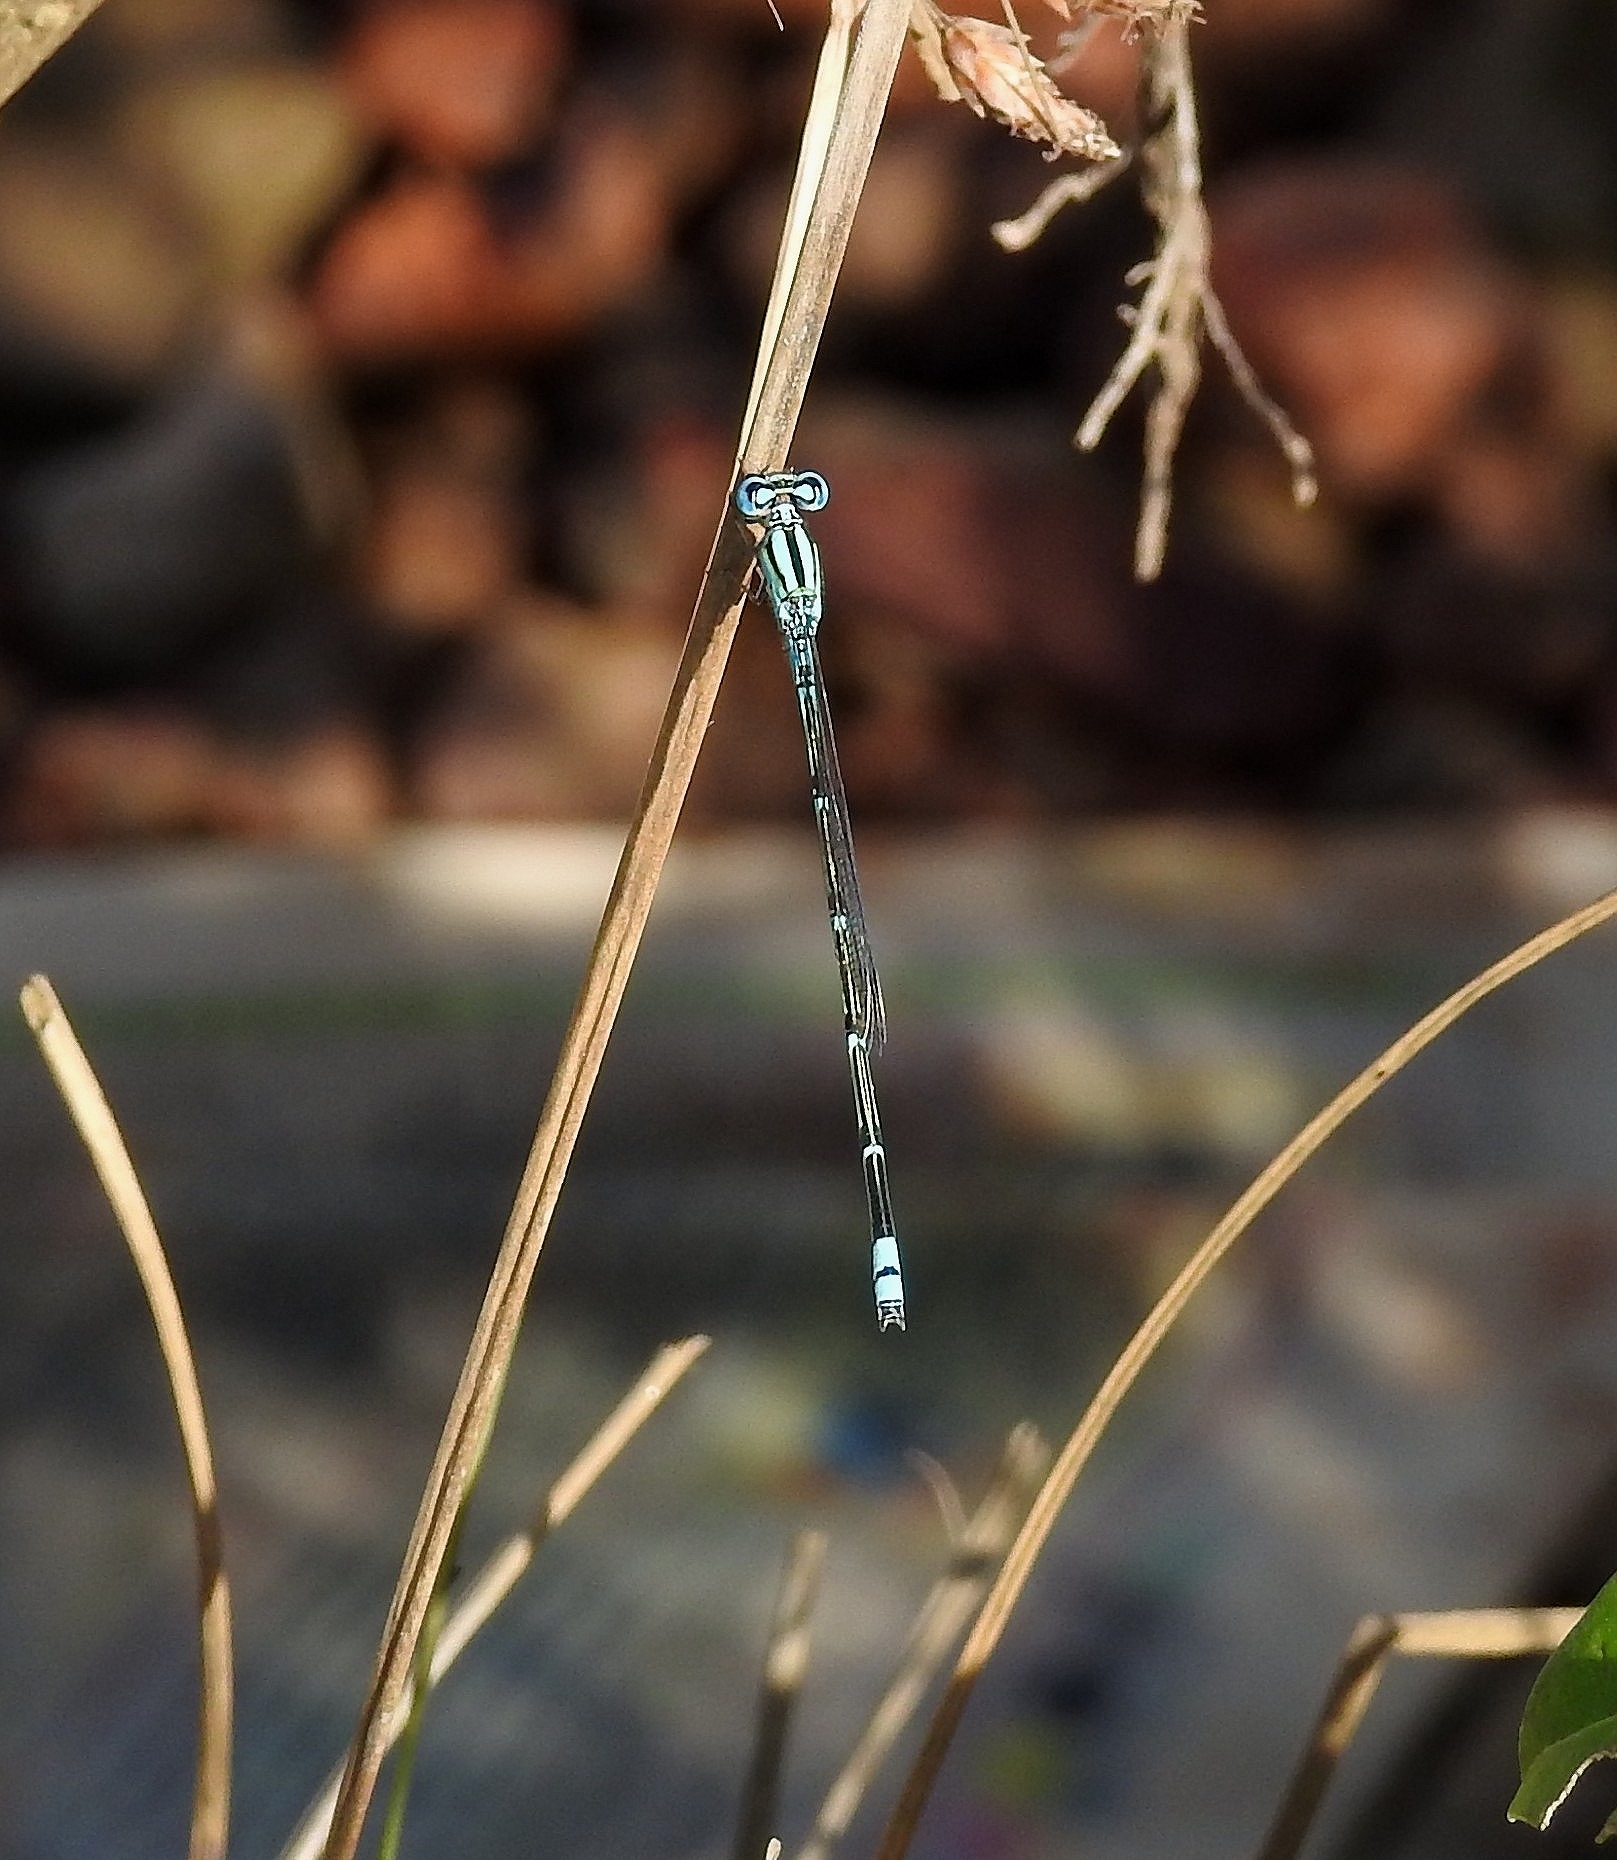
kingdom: Animalia
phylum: Arthropoda
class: Insecta
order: Odonata
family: Coenagrionidae
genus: Pseudagrion
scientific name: Pseudagrion microcephalum
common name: Blue riverdamsel
